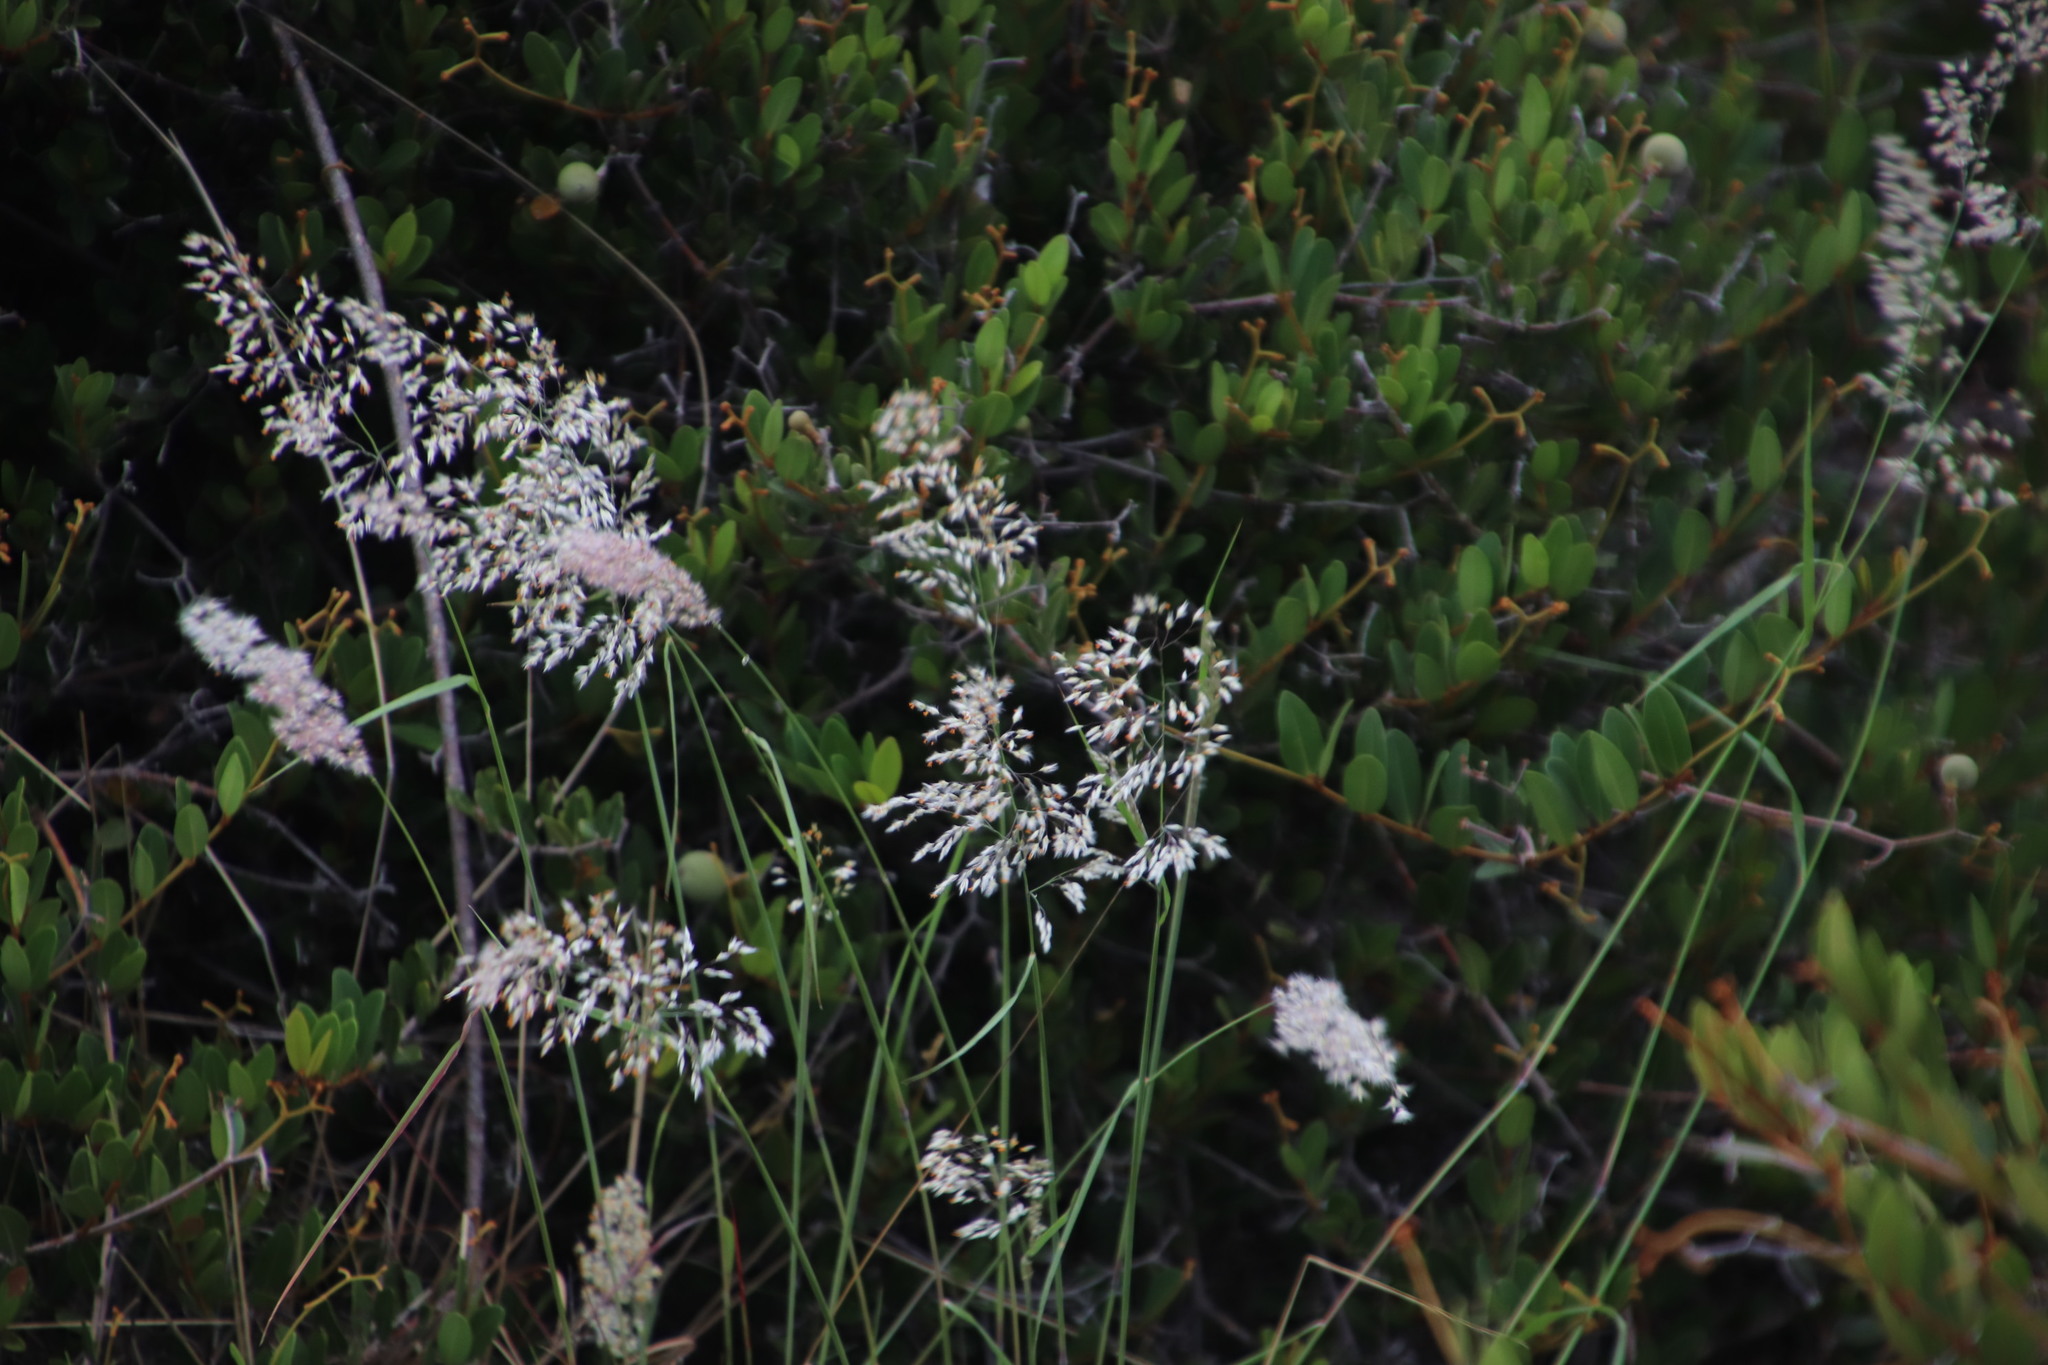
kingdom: Plantae
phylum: Tracheophyta
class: Liliopsida
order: Poales
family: Poaceae
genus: Melinis
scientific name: Melinis repens
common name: Rose natal grass
